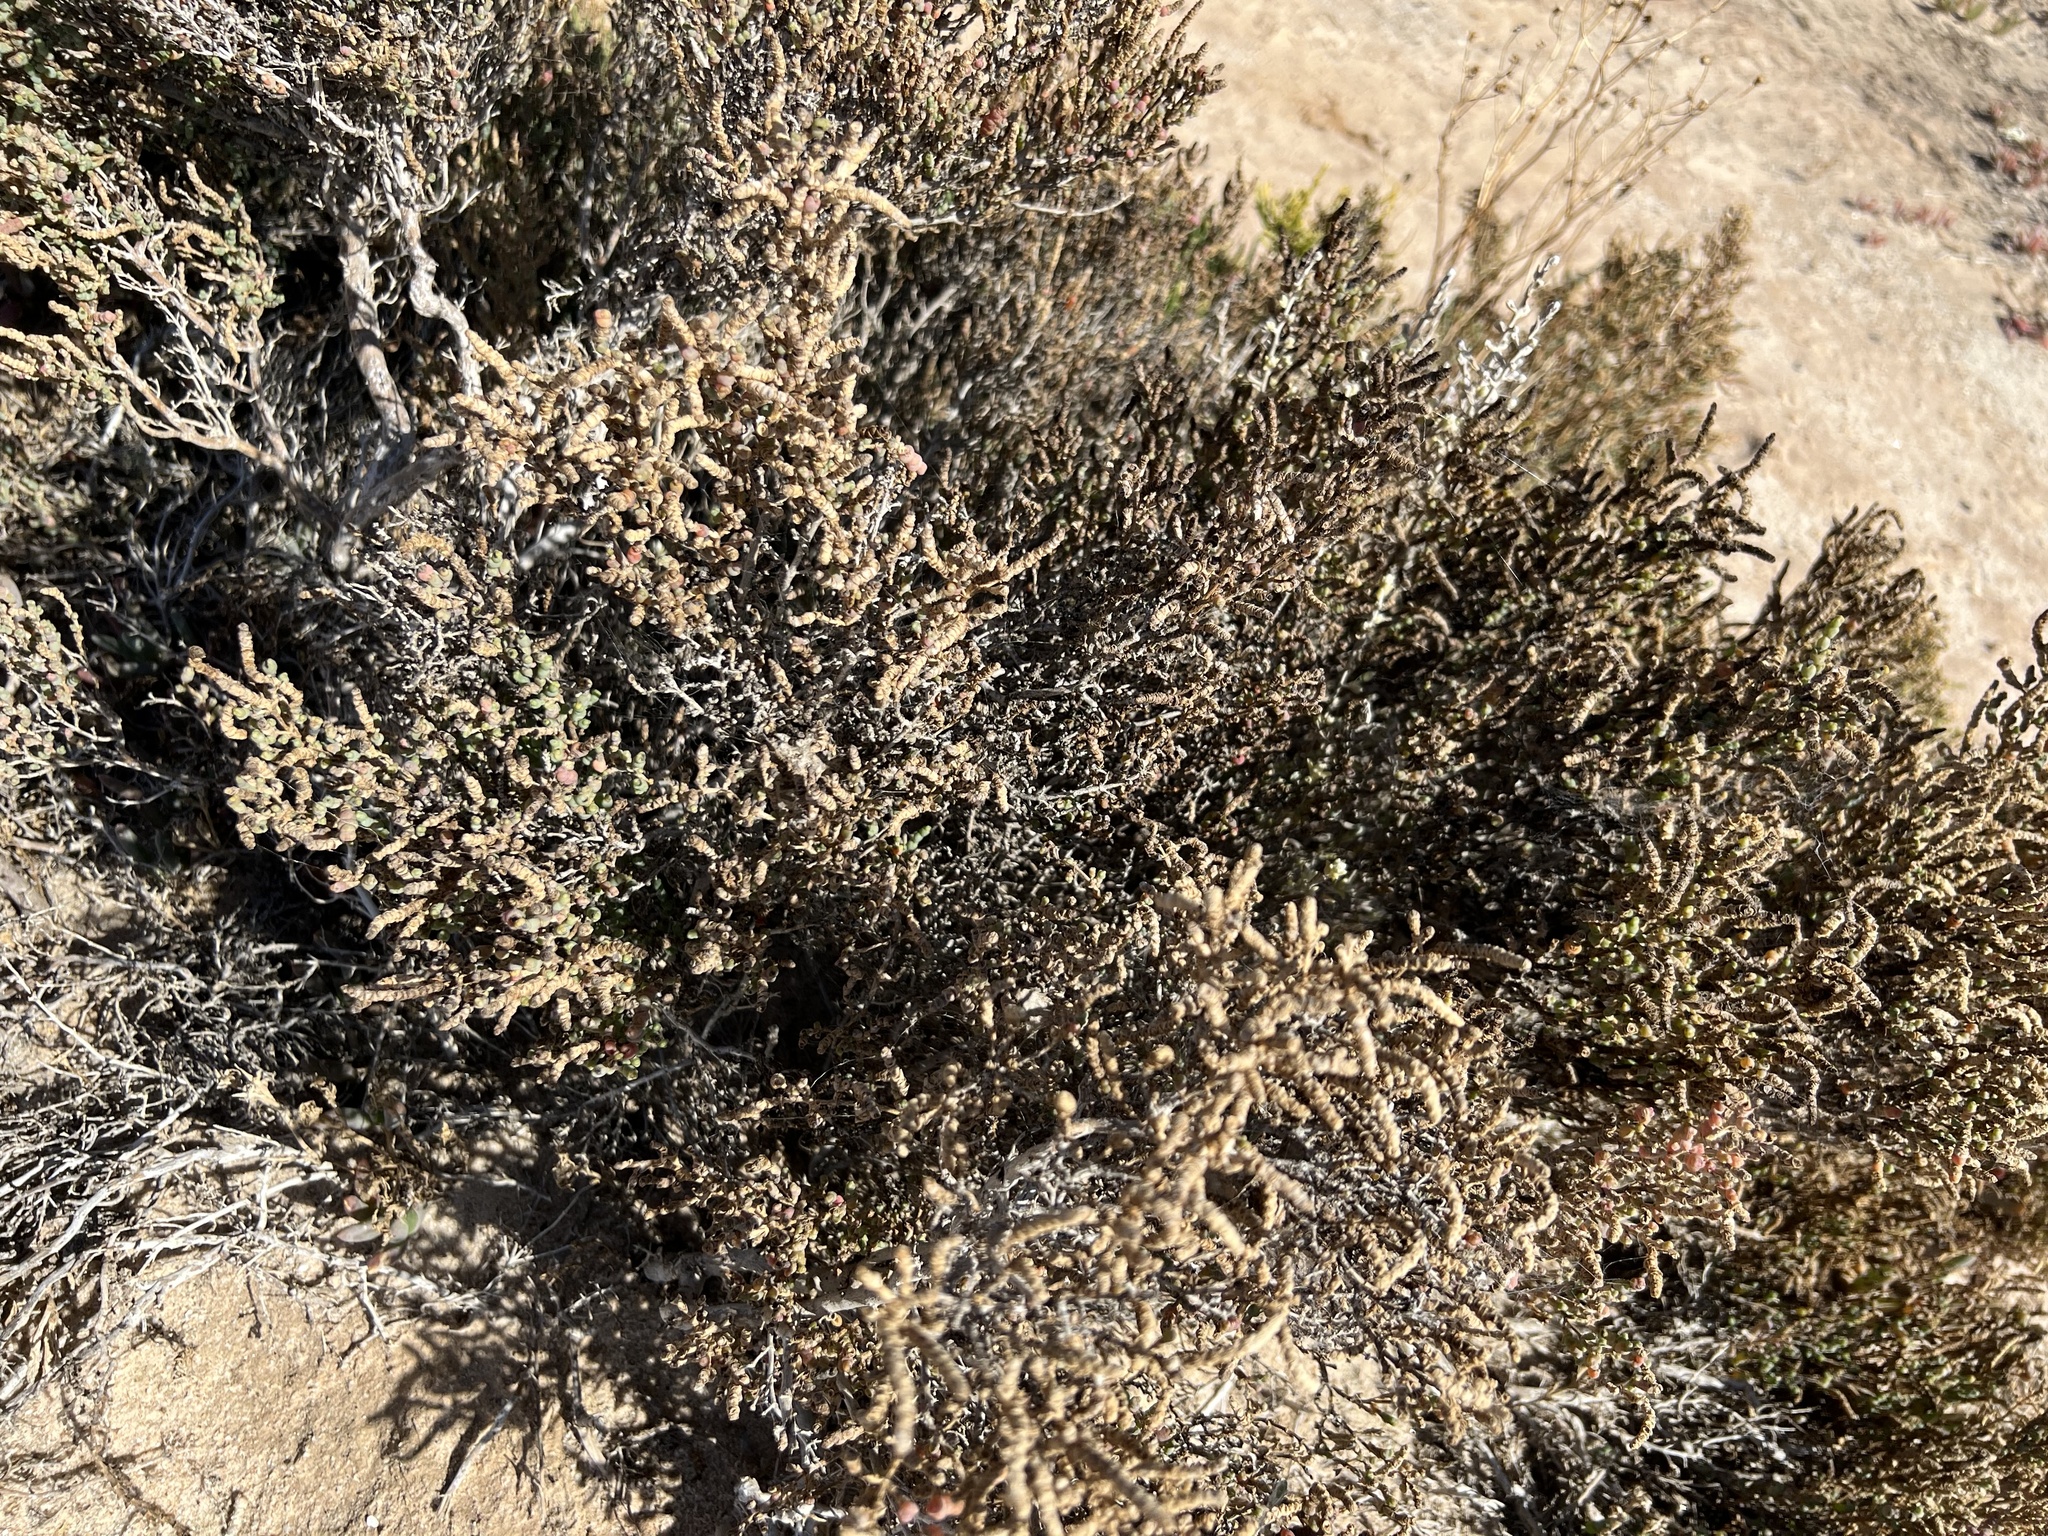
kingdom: Plantae
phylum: Tracheophyta
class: Magnoliopsida
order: Caryophyllales
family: Amaranthaceae
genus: Tecticornia
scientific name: Tecticornia pergranulata
